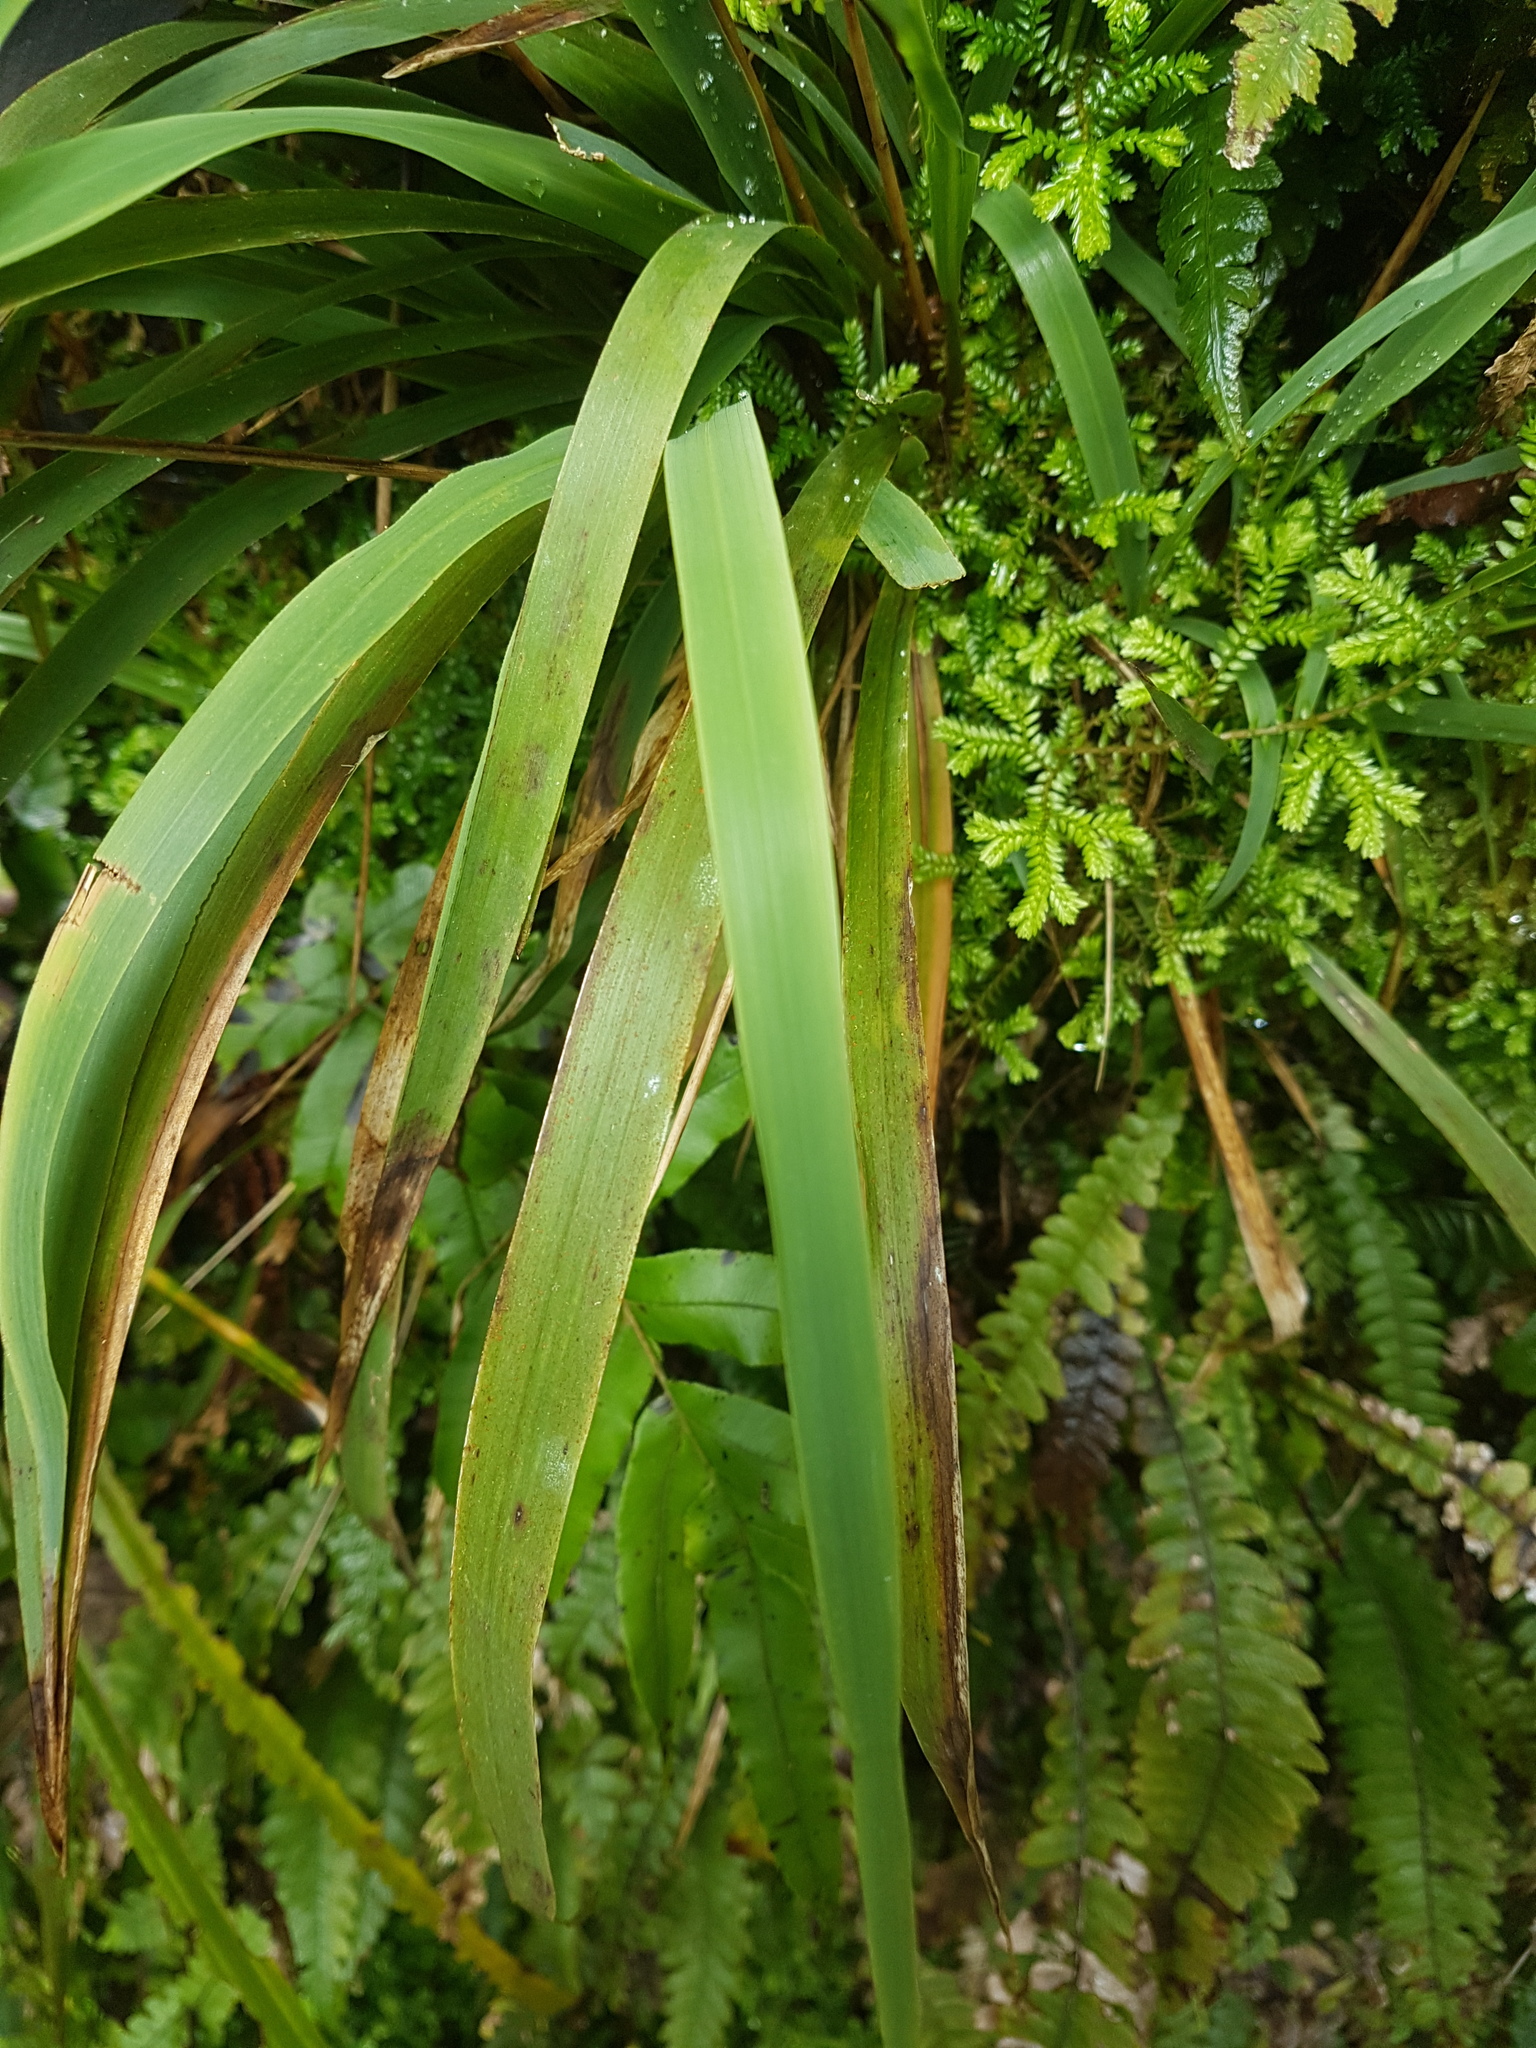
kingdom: Plantae
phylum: Tracheophyta
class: Liliopsida
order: Poales
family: Poaceae
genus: Ehrharta
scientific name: Ehrharta diplax
